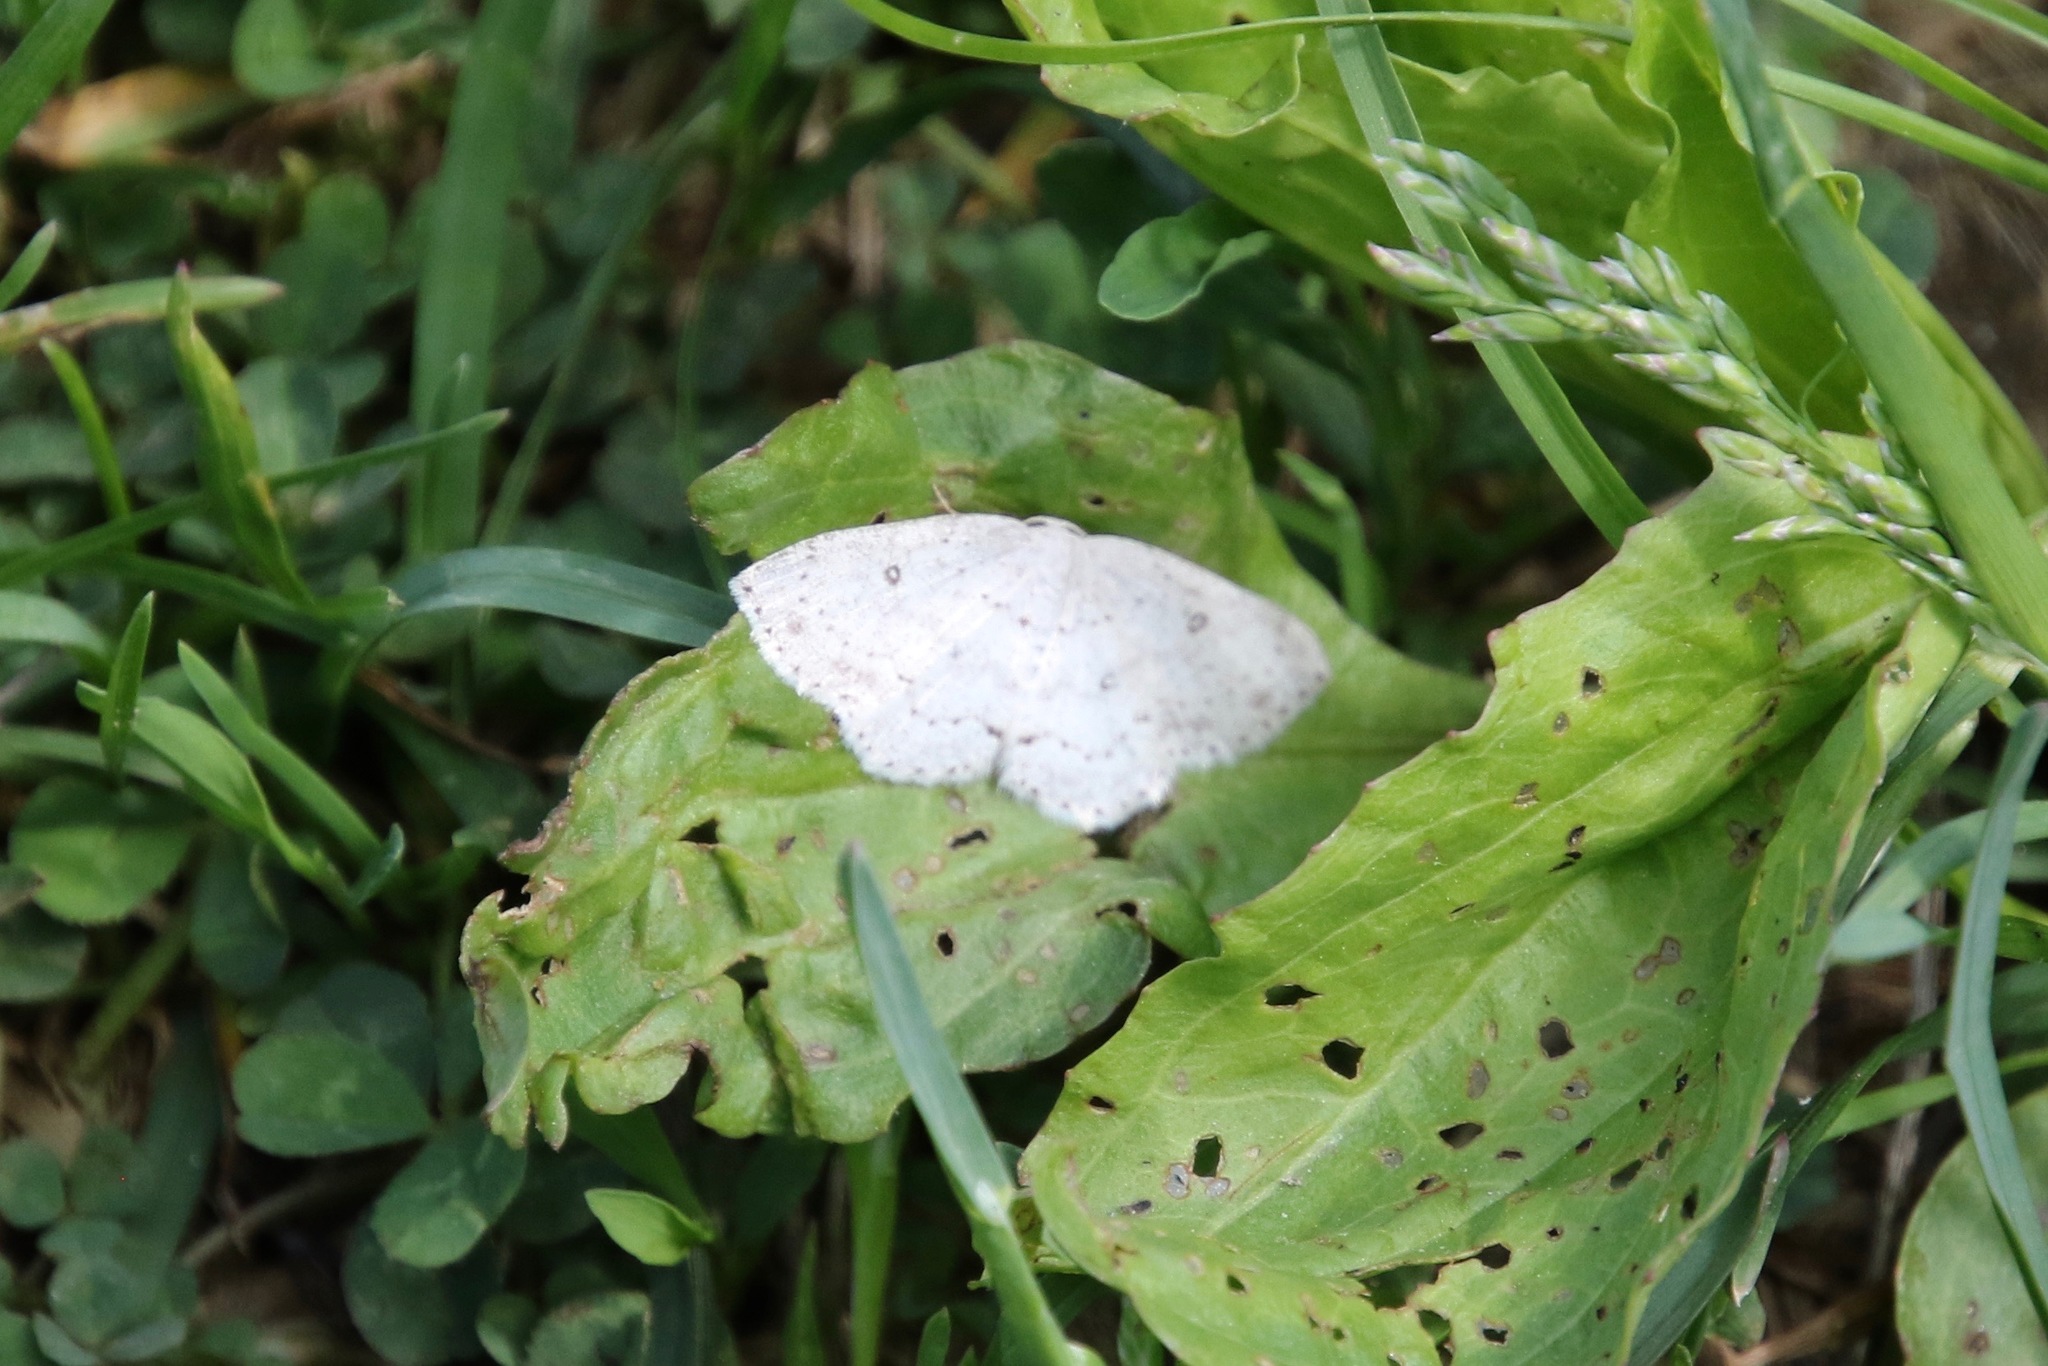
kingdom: Animalia
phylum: Arthropoda
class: Insecta
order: Lepidoptera
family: Geometridae
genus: Cyclophora
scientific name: Cyclophora pendulinaria
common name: Sweet fern geometer
